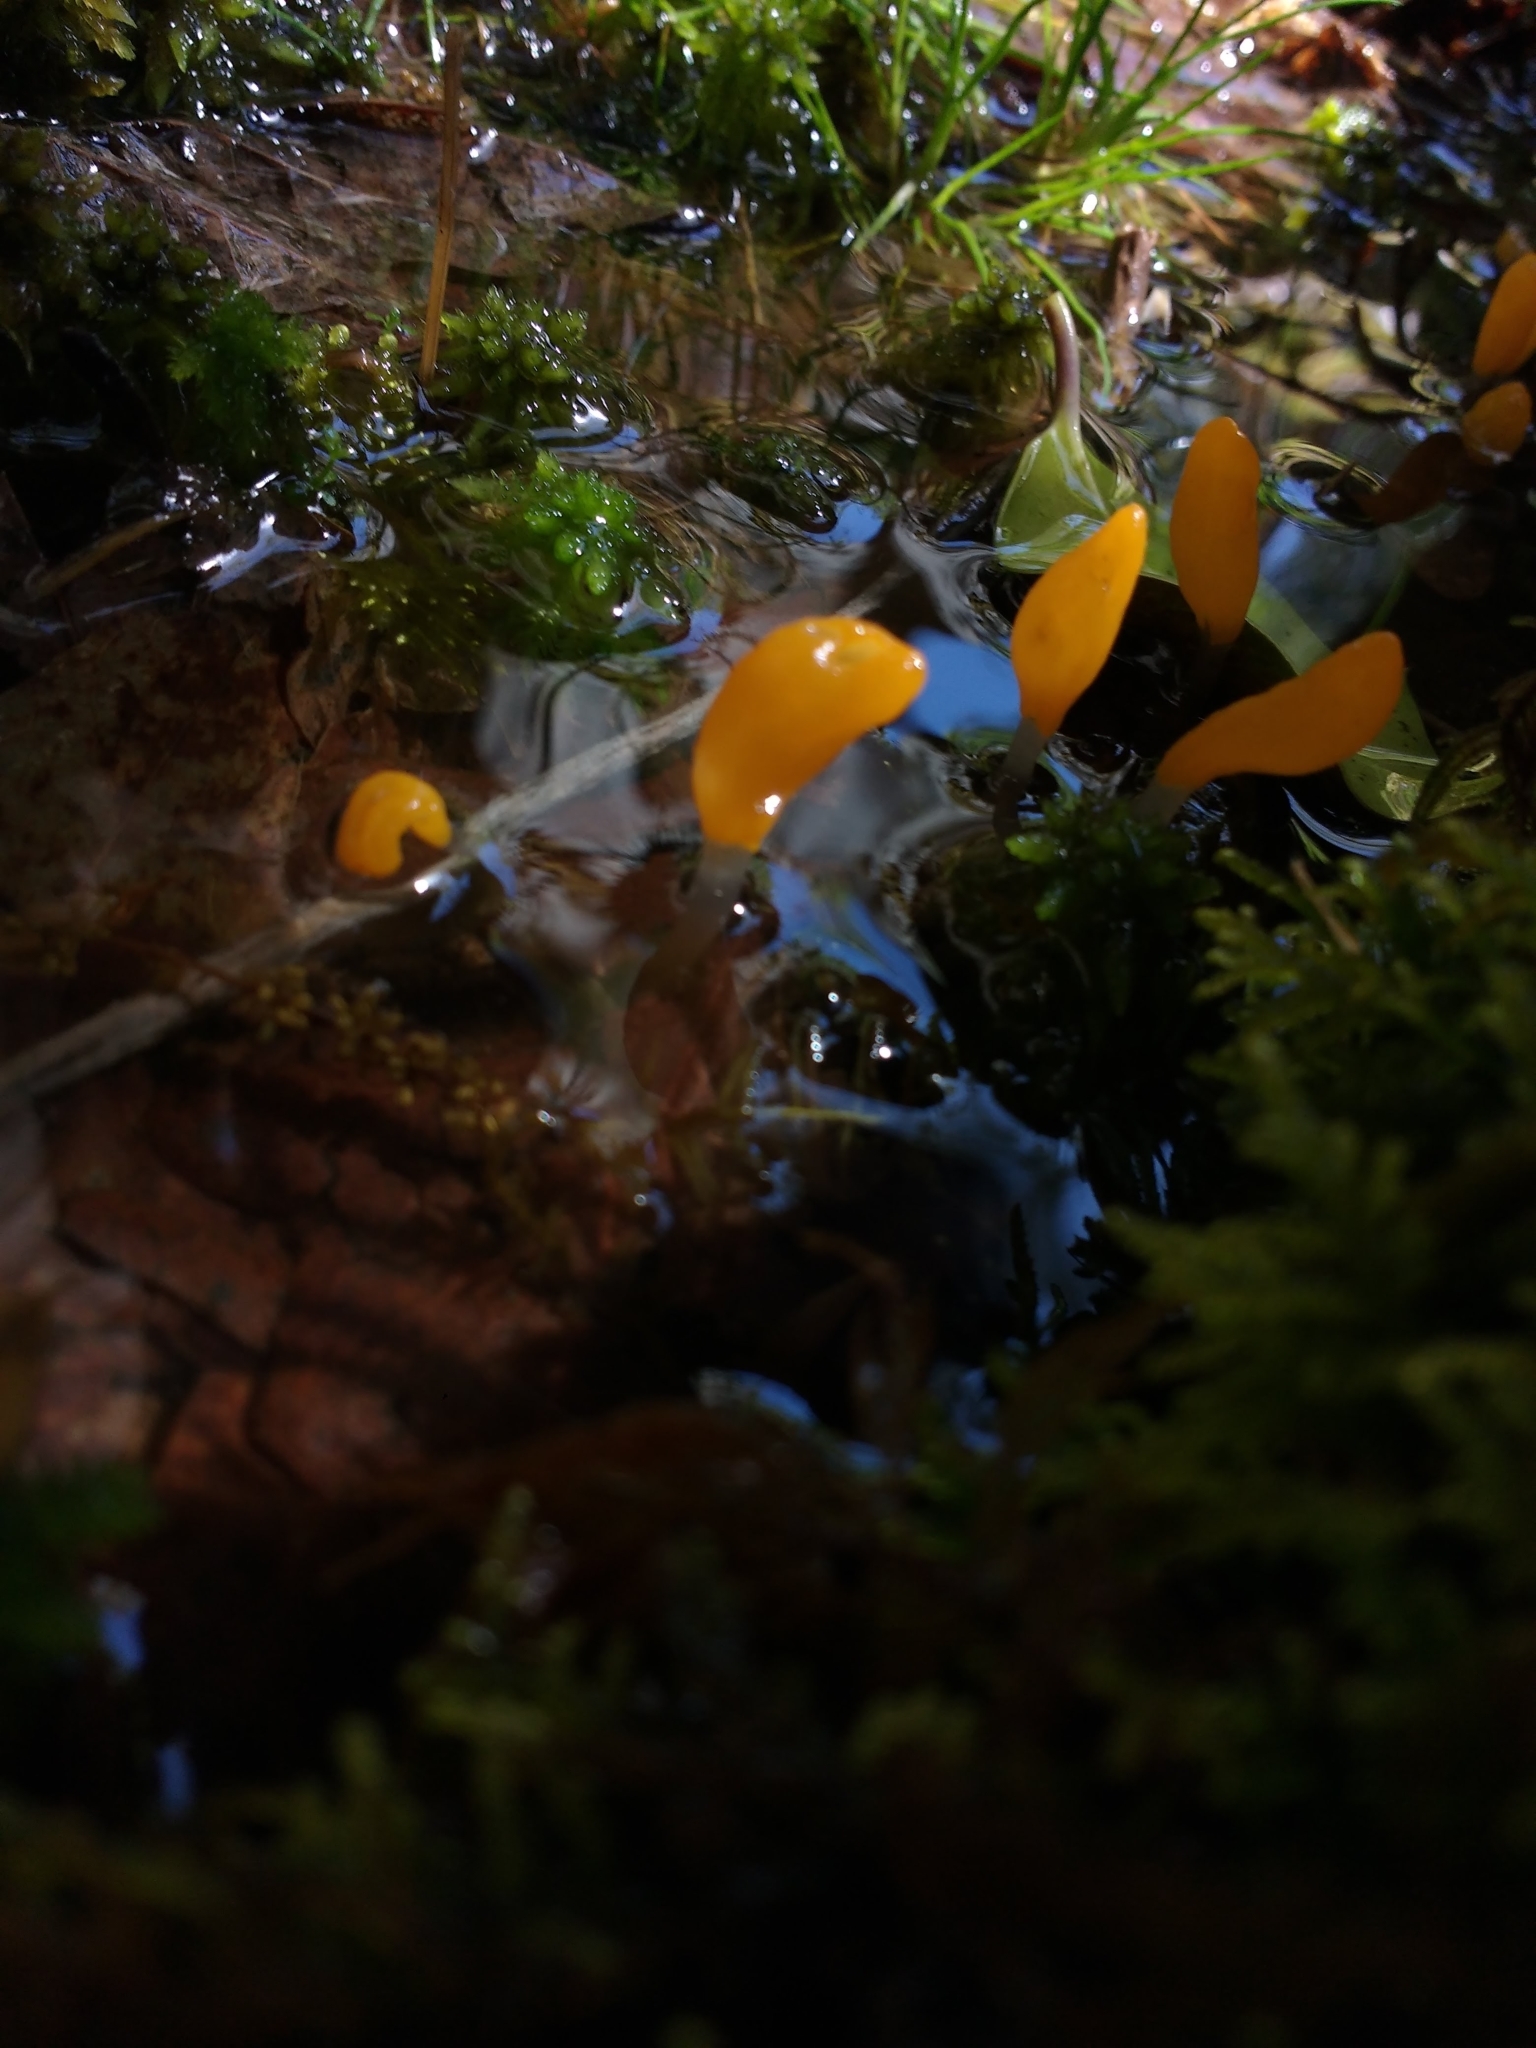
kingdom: Fungi
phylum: Ascomycota
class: Leotiomycetes
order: Helotiales
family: Cenangiaceae
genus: Mitrula
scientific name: Mitrula paludosa
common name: Bog beacon
